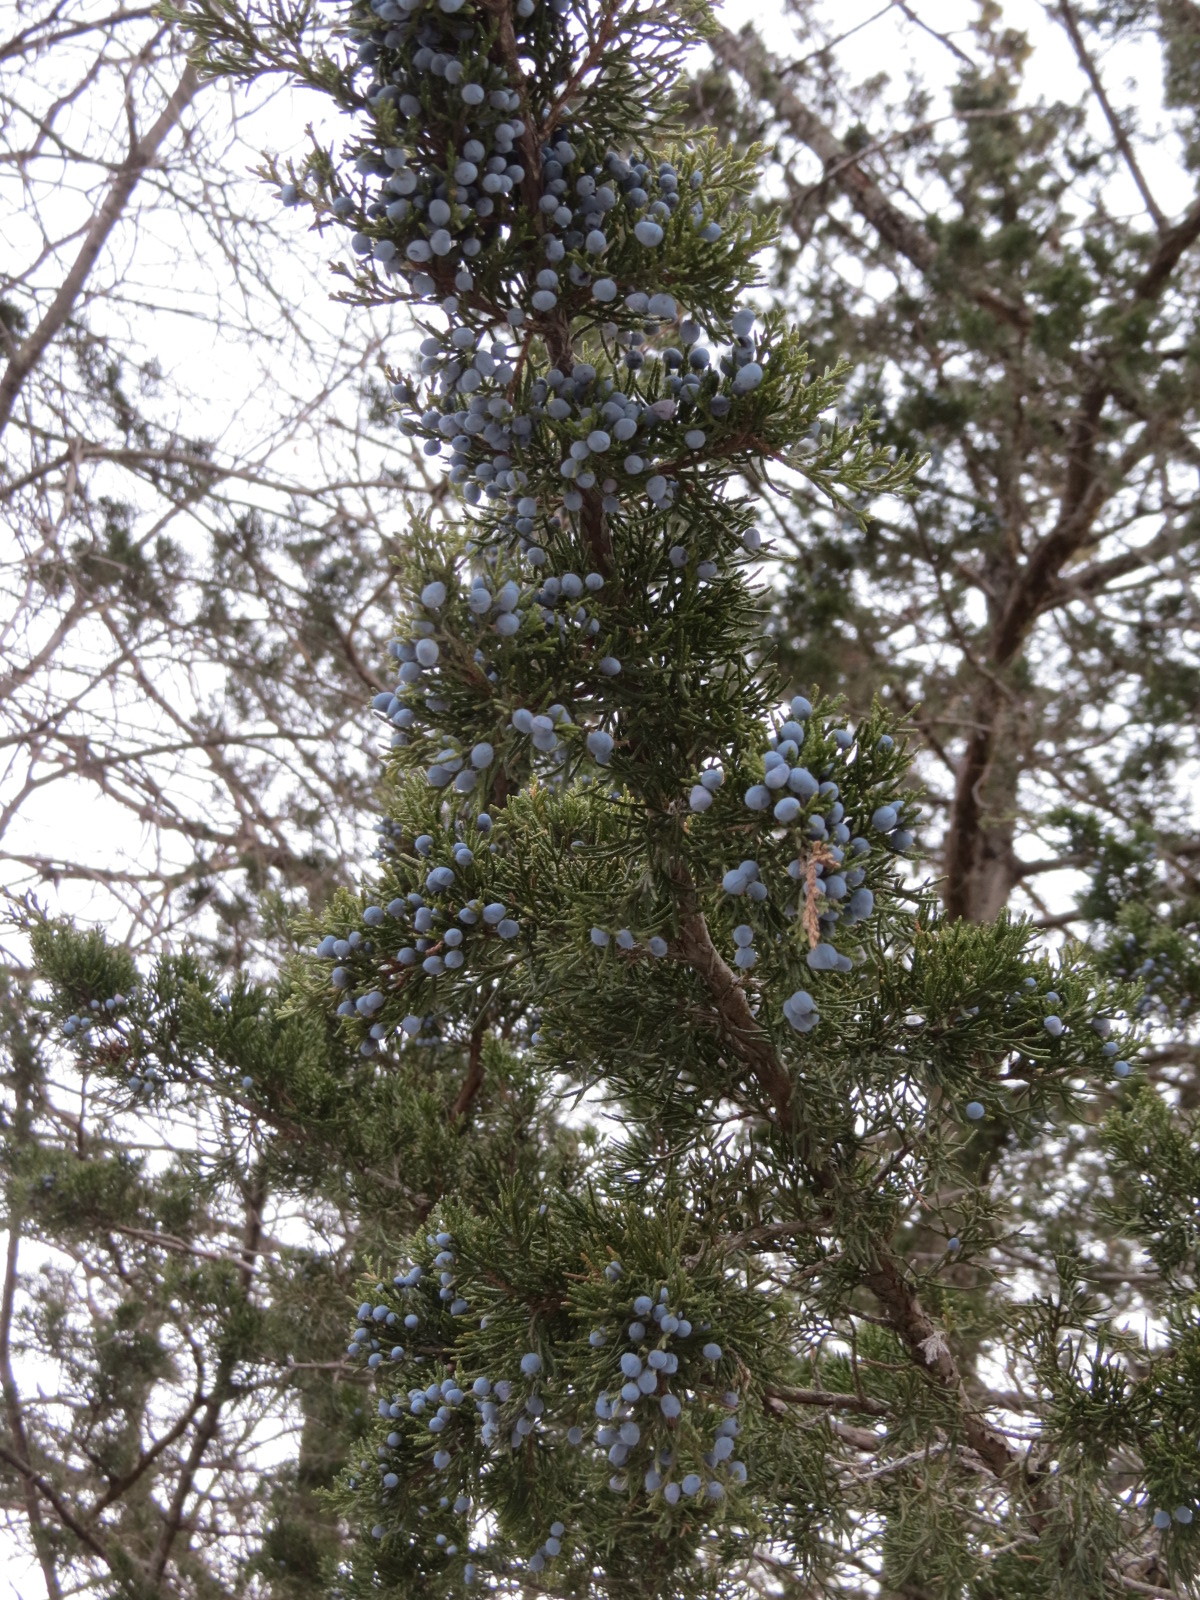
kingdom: Plantae
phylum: Tracheophyta
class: Pinopsida
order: Pinales
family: Cupressaceae
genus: Juniperus
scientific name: Juniperus virginiana
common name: Red juniper
